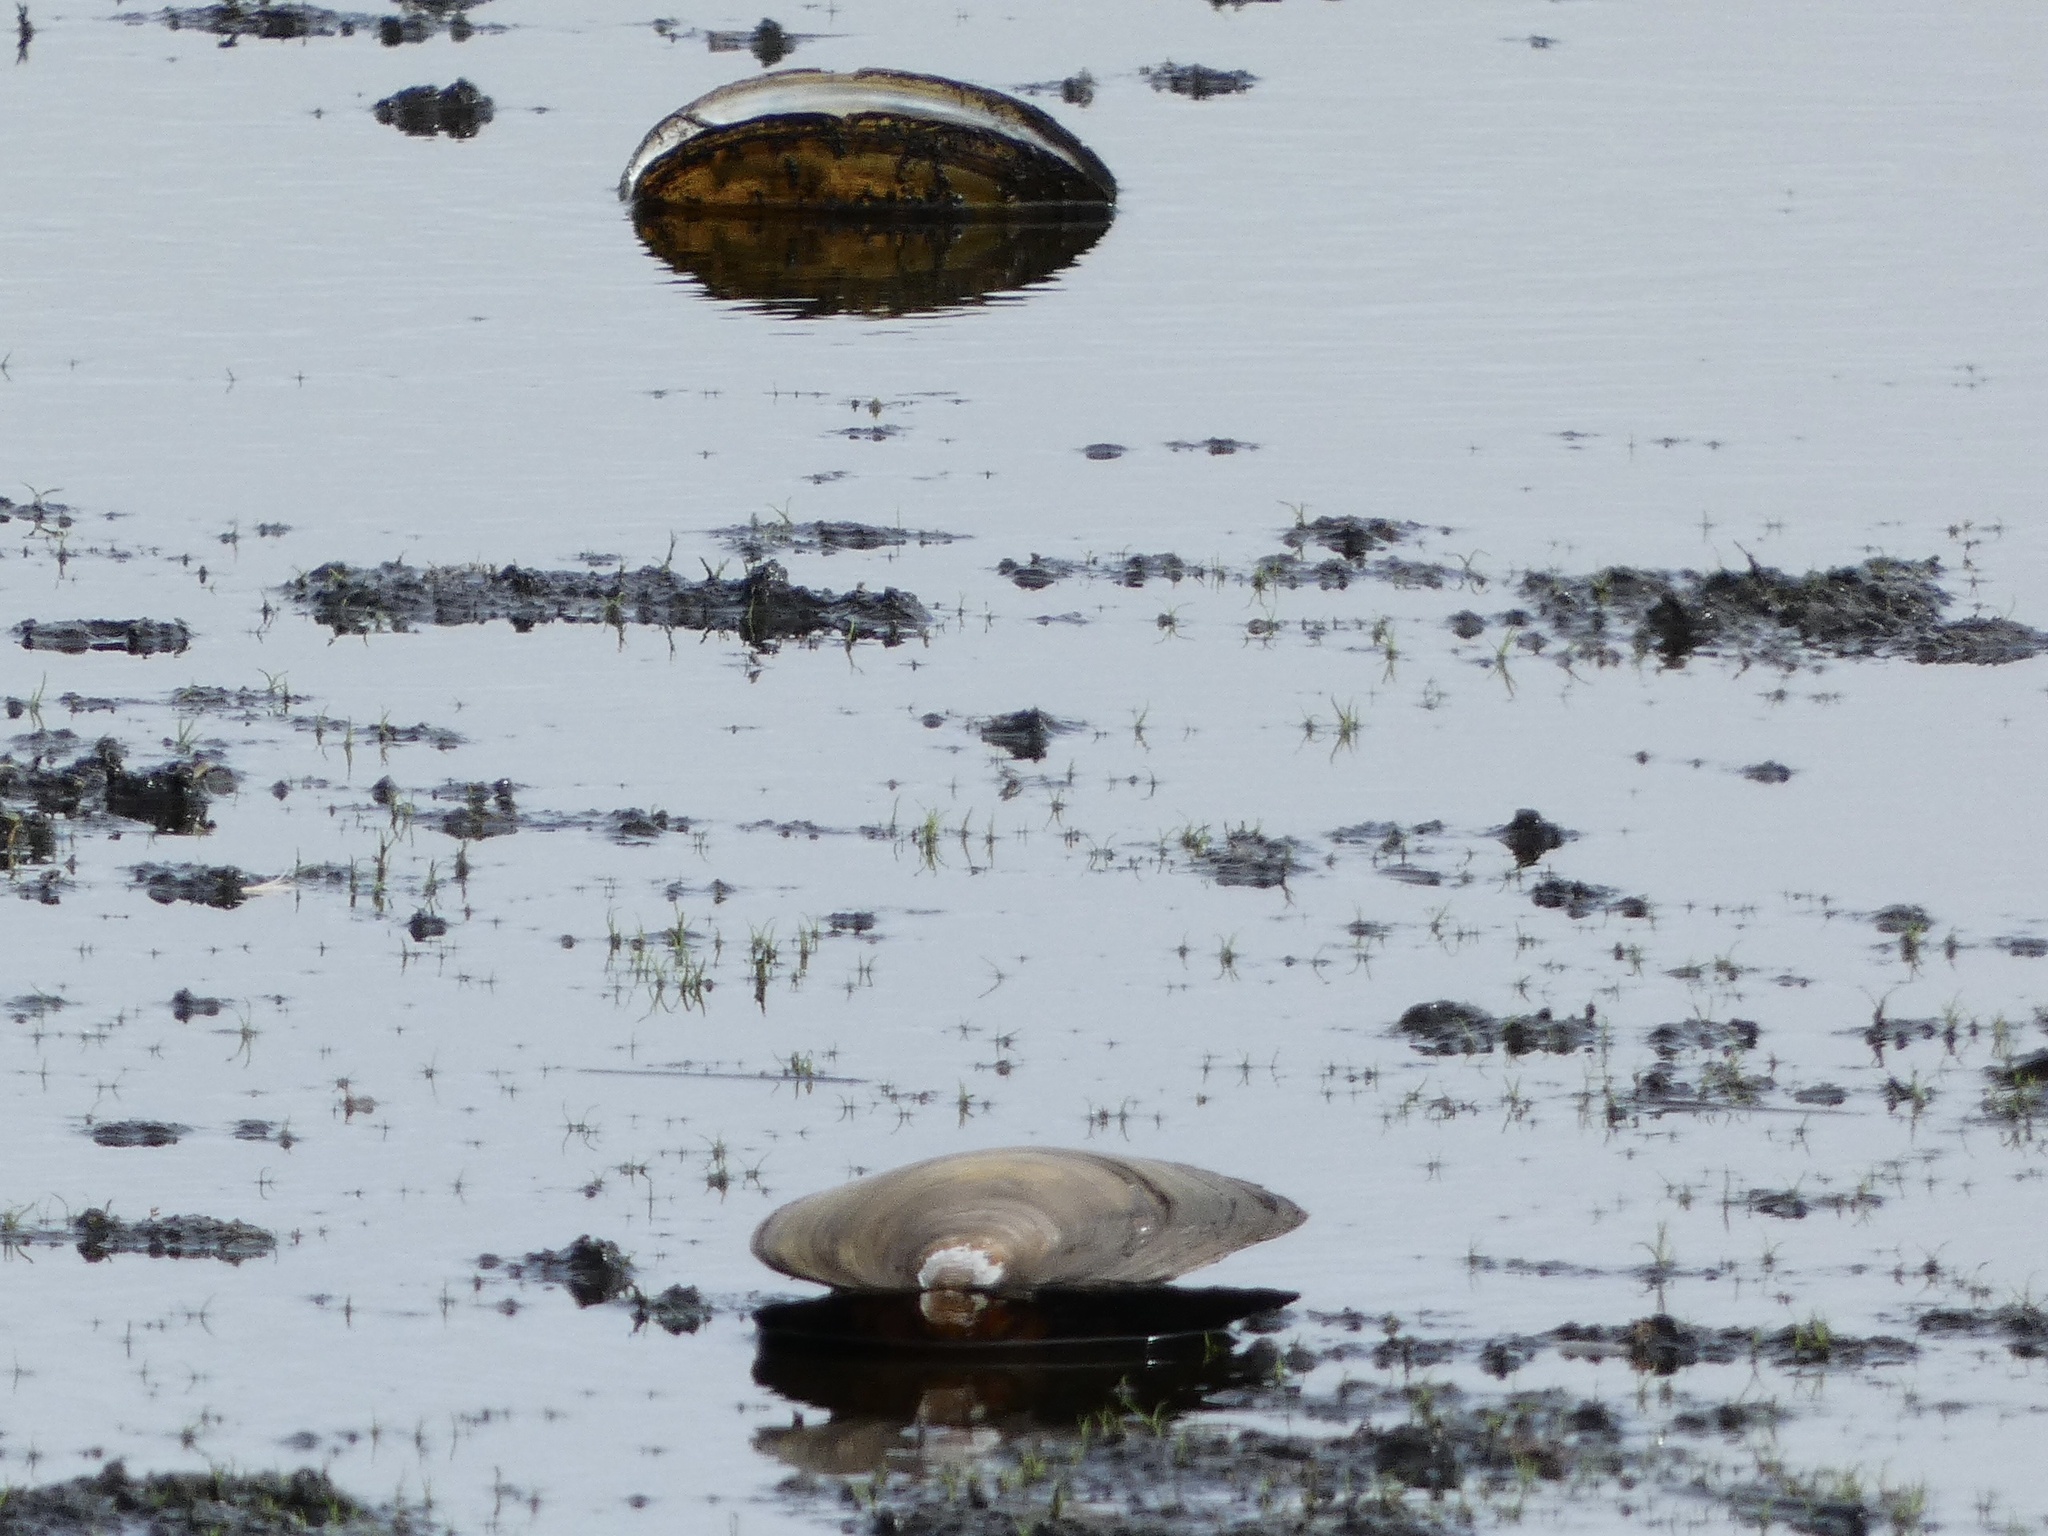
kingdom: Animalia
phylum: Mollusca
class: Bivalvia
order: Unionida
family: Unionidae
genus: Anodonta
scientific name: Anodonta anatina
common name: Duck mussel
